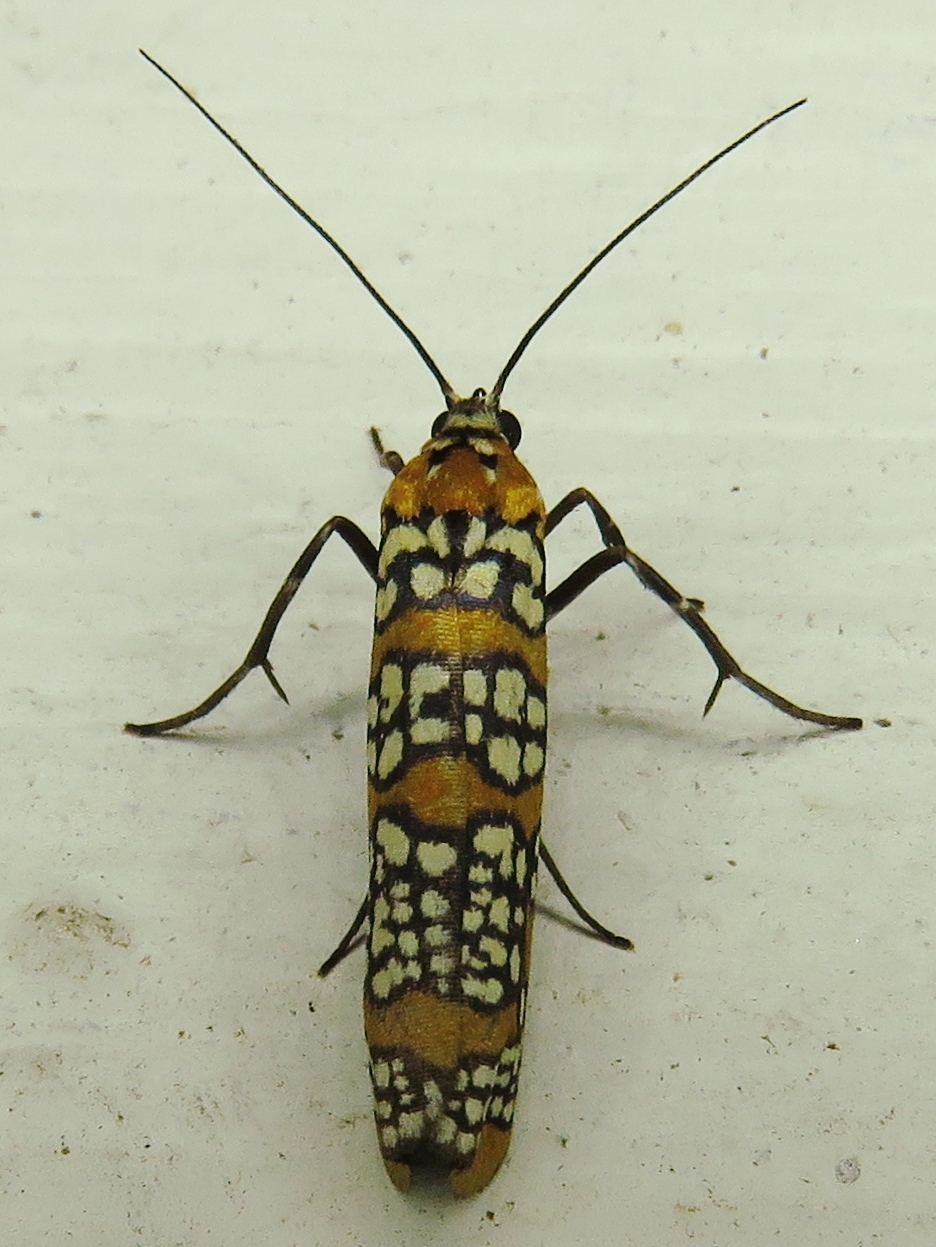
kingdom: Animalia
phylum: Arthropoda
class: Insecta
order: Lepidoptera
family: Attevidae
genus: Atteva
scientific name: Atteva punctella
